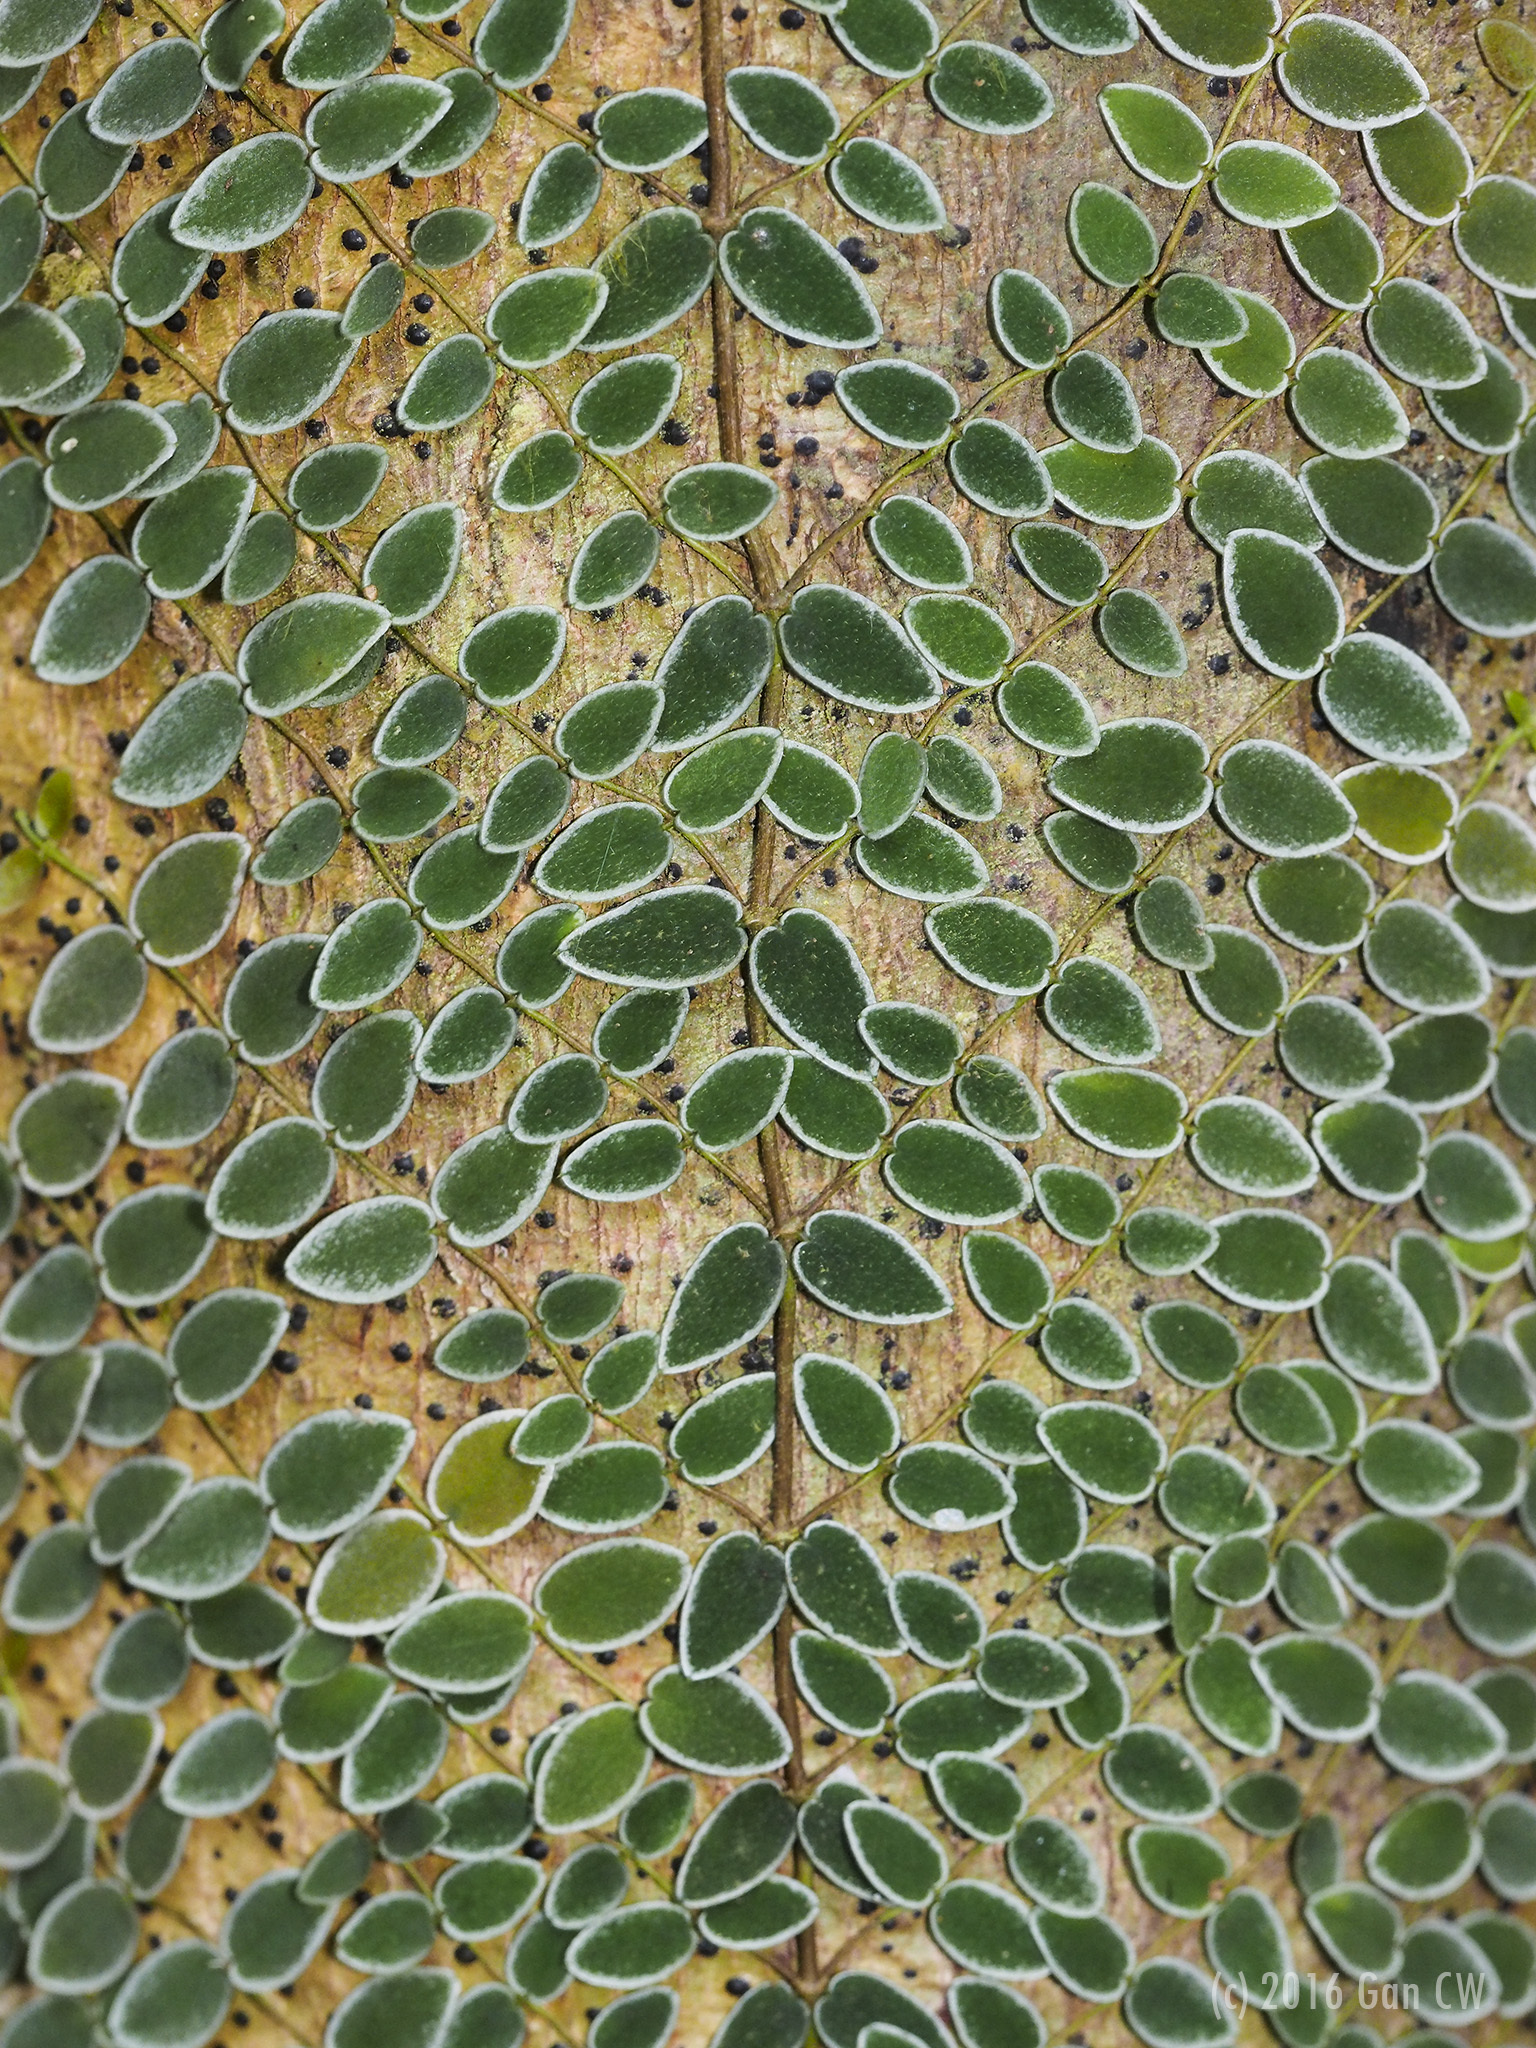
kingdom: Plantae
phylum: Tracheophyta
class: Magnoliopsida
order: Gentianales
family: Apocynaceae
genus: Micrechites
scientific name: Micrechites serpyllifolia
